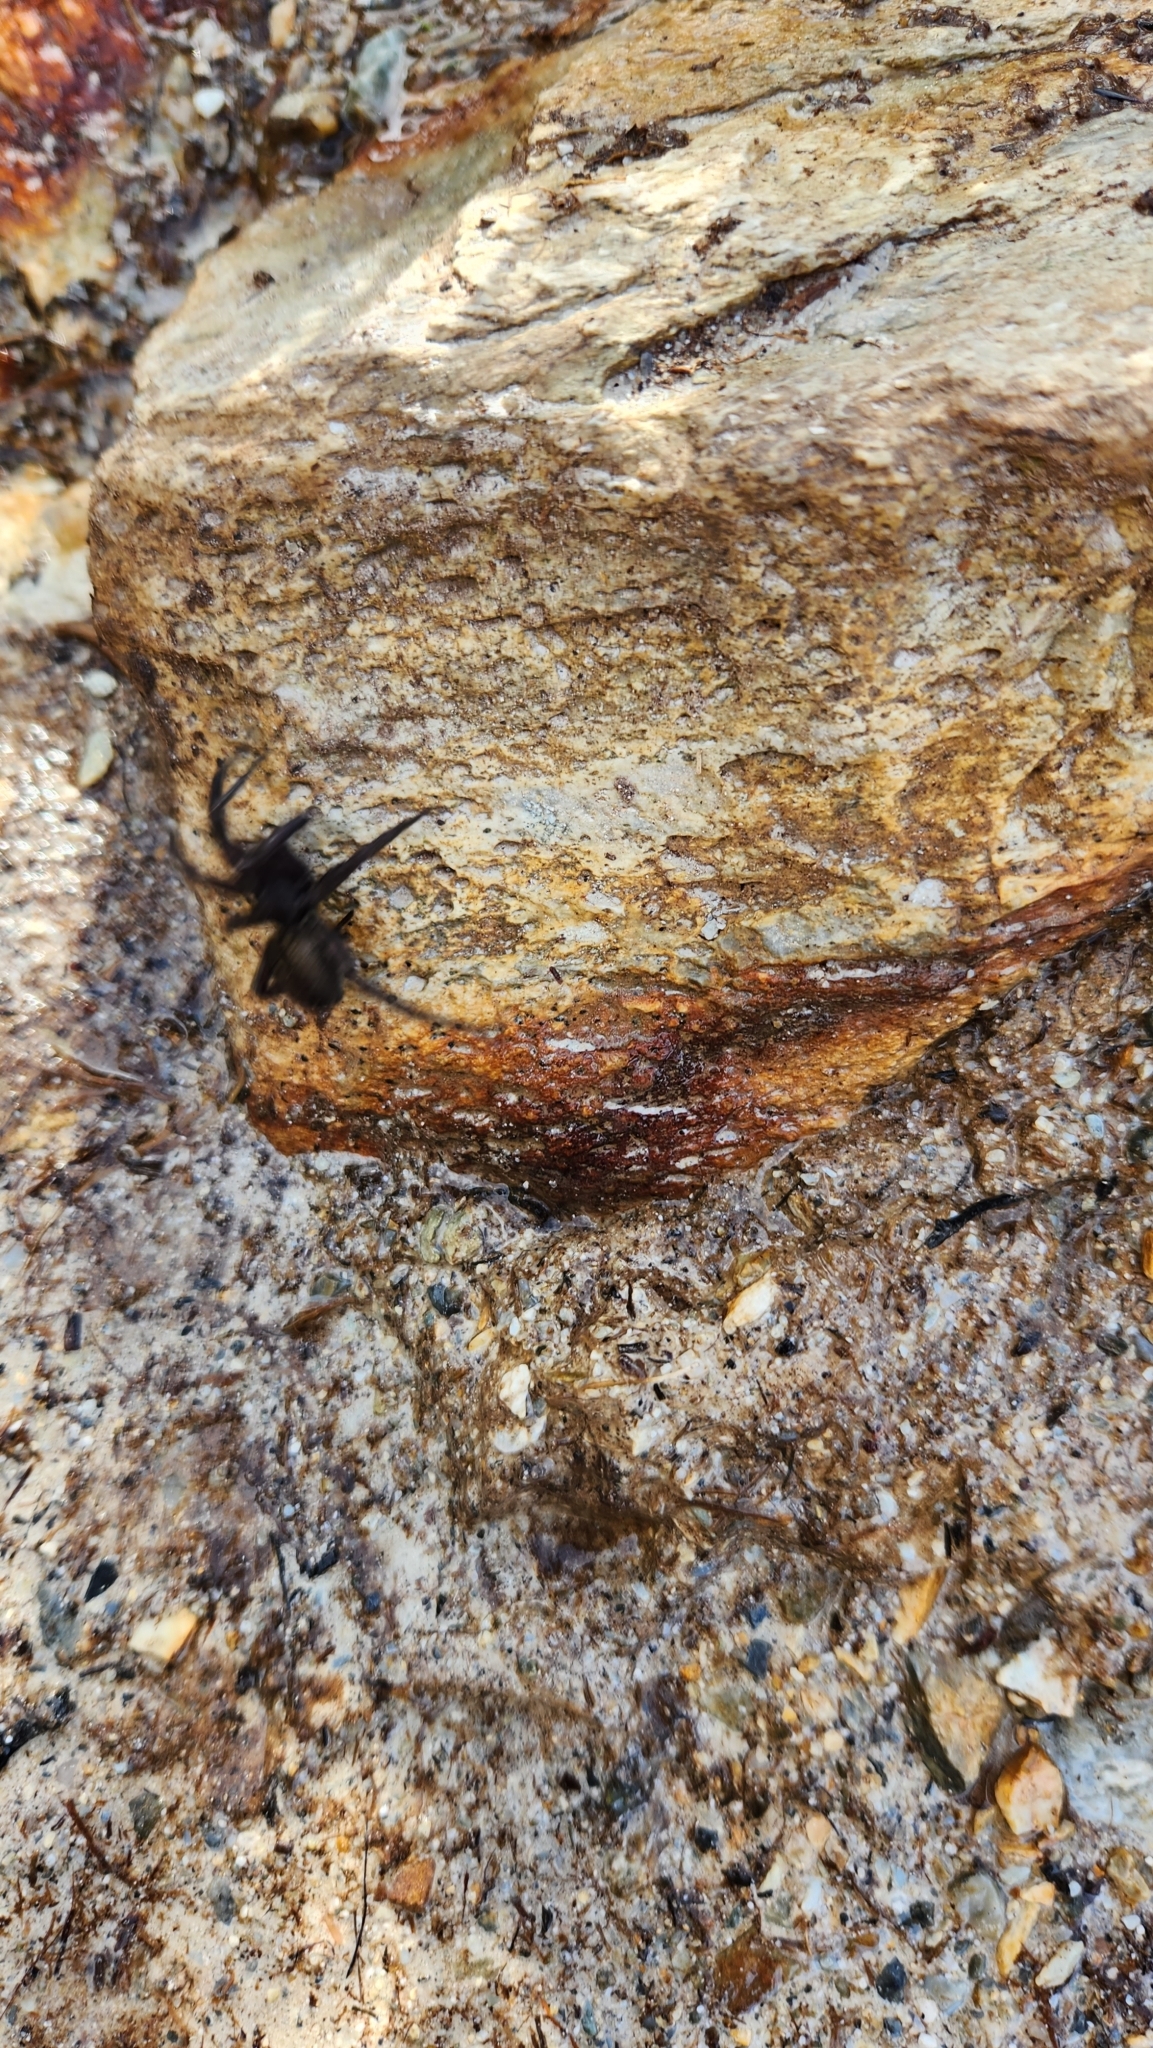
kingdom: Animalia
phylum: Arthropoda
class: Arachnida
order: Araneae
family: Lycosidae
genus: Lycosa
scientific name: Lycosa australis
